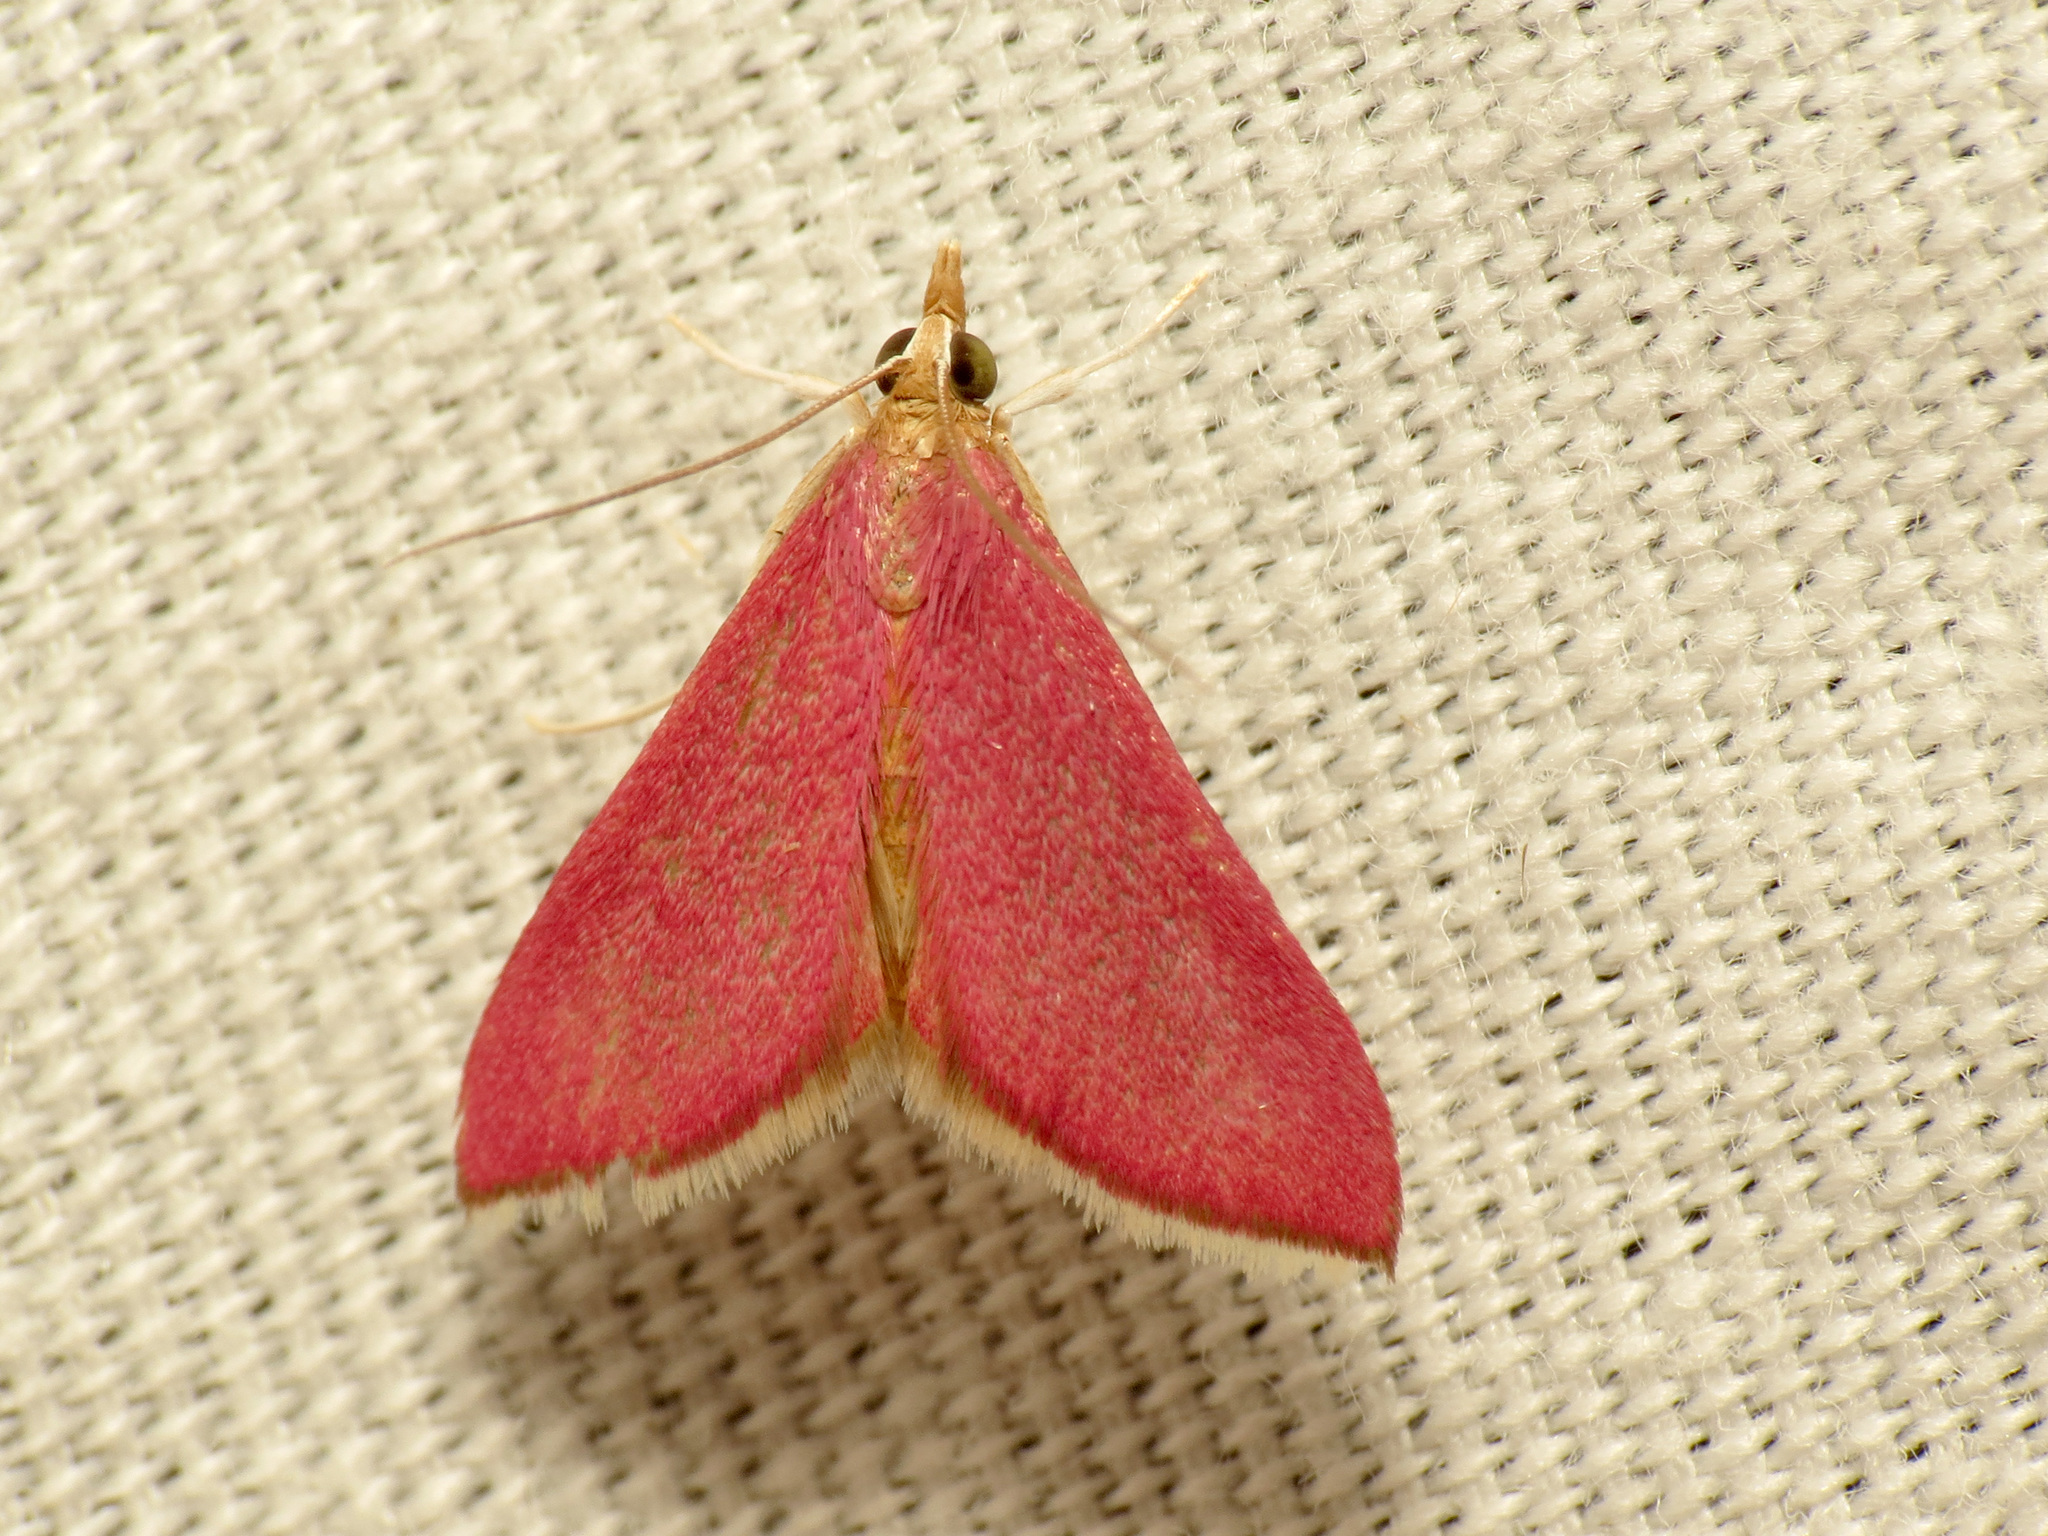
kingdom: Animalia
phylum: Arthropoda
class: Insecta
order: Lepidoptera
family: Crambidae
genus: Pyrausta
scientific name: Pyrausta inornatalis
